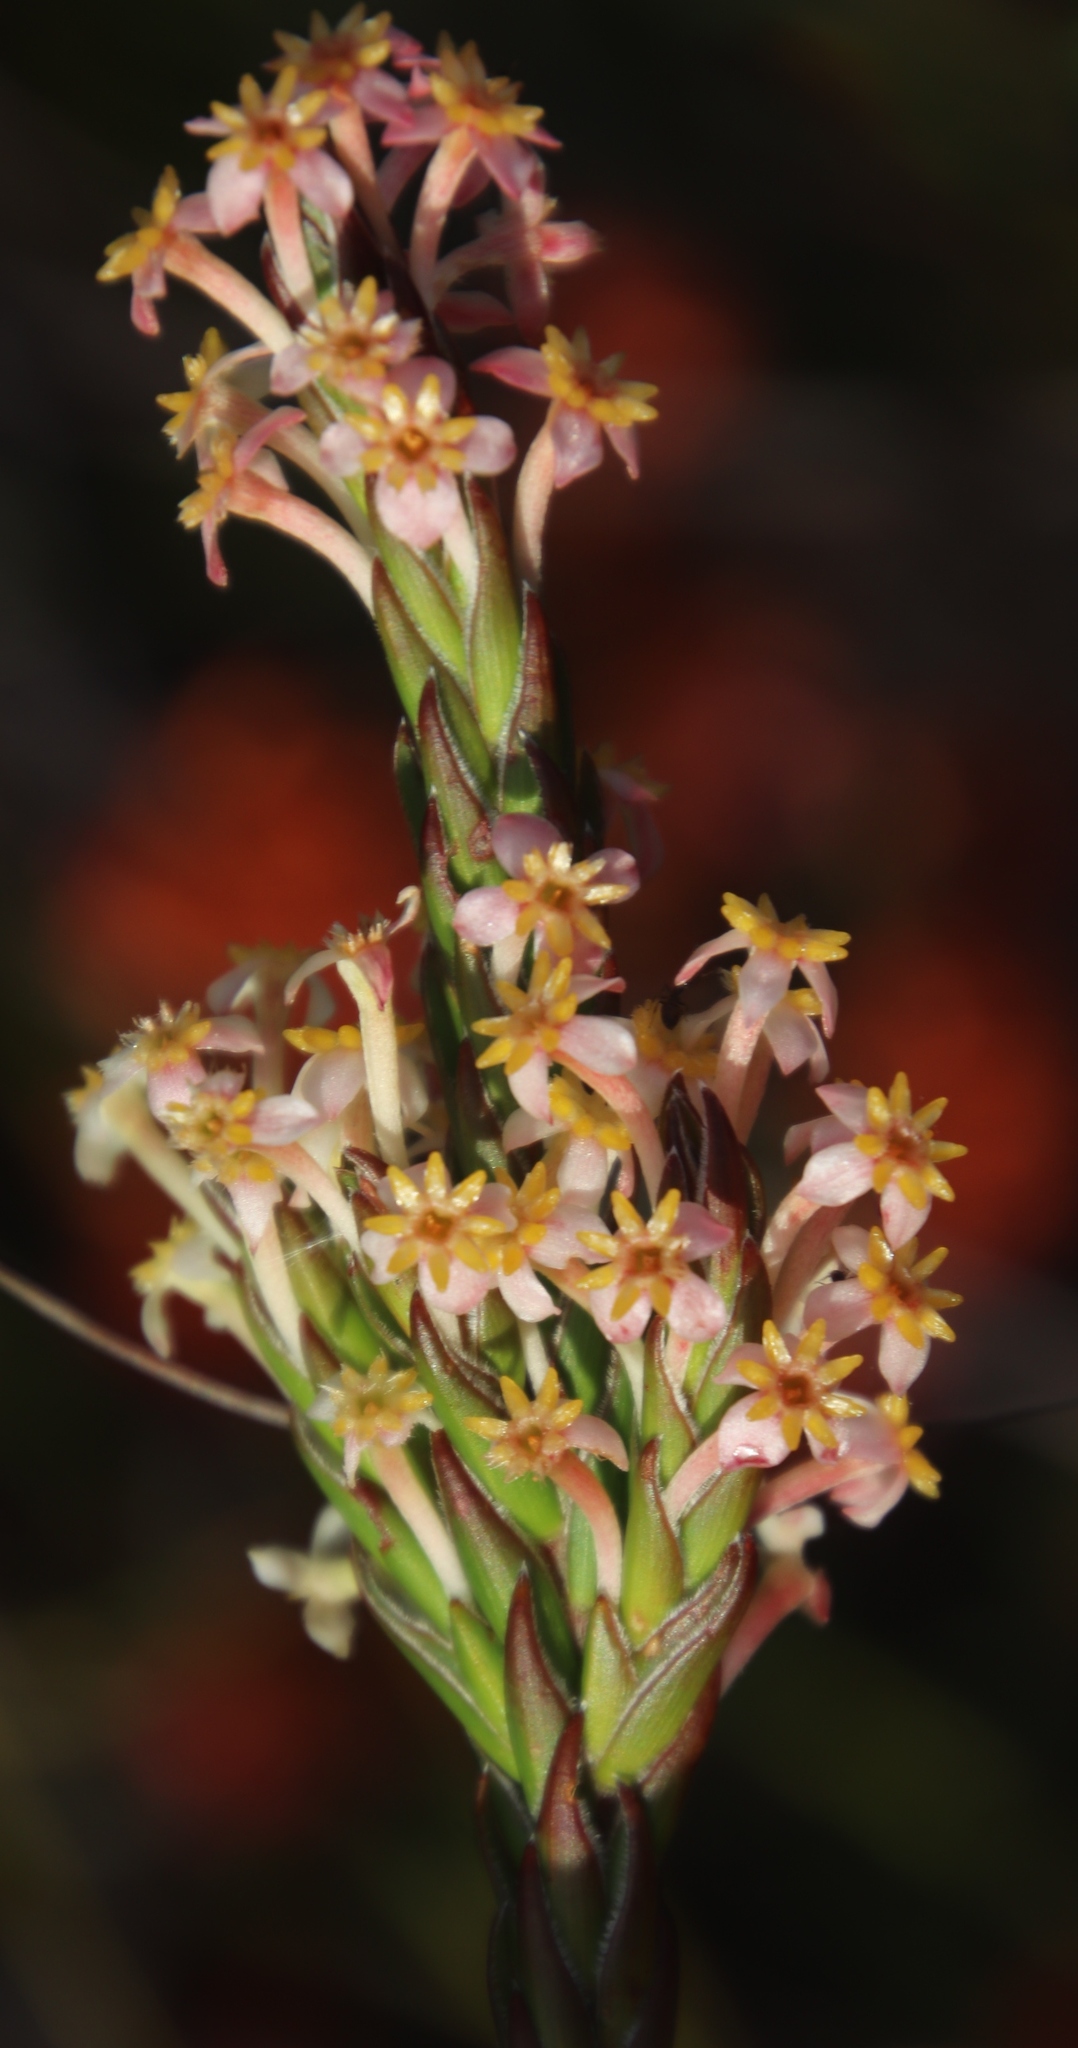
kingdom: Plantae
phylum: Tracheophyta
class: Magnoliopsida
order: Malvales
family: Thymelaeaceae
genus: Struthiola
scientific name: Struthiola ciliata
